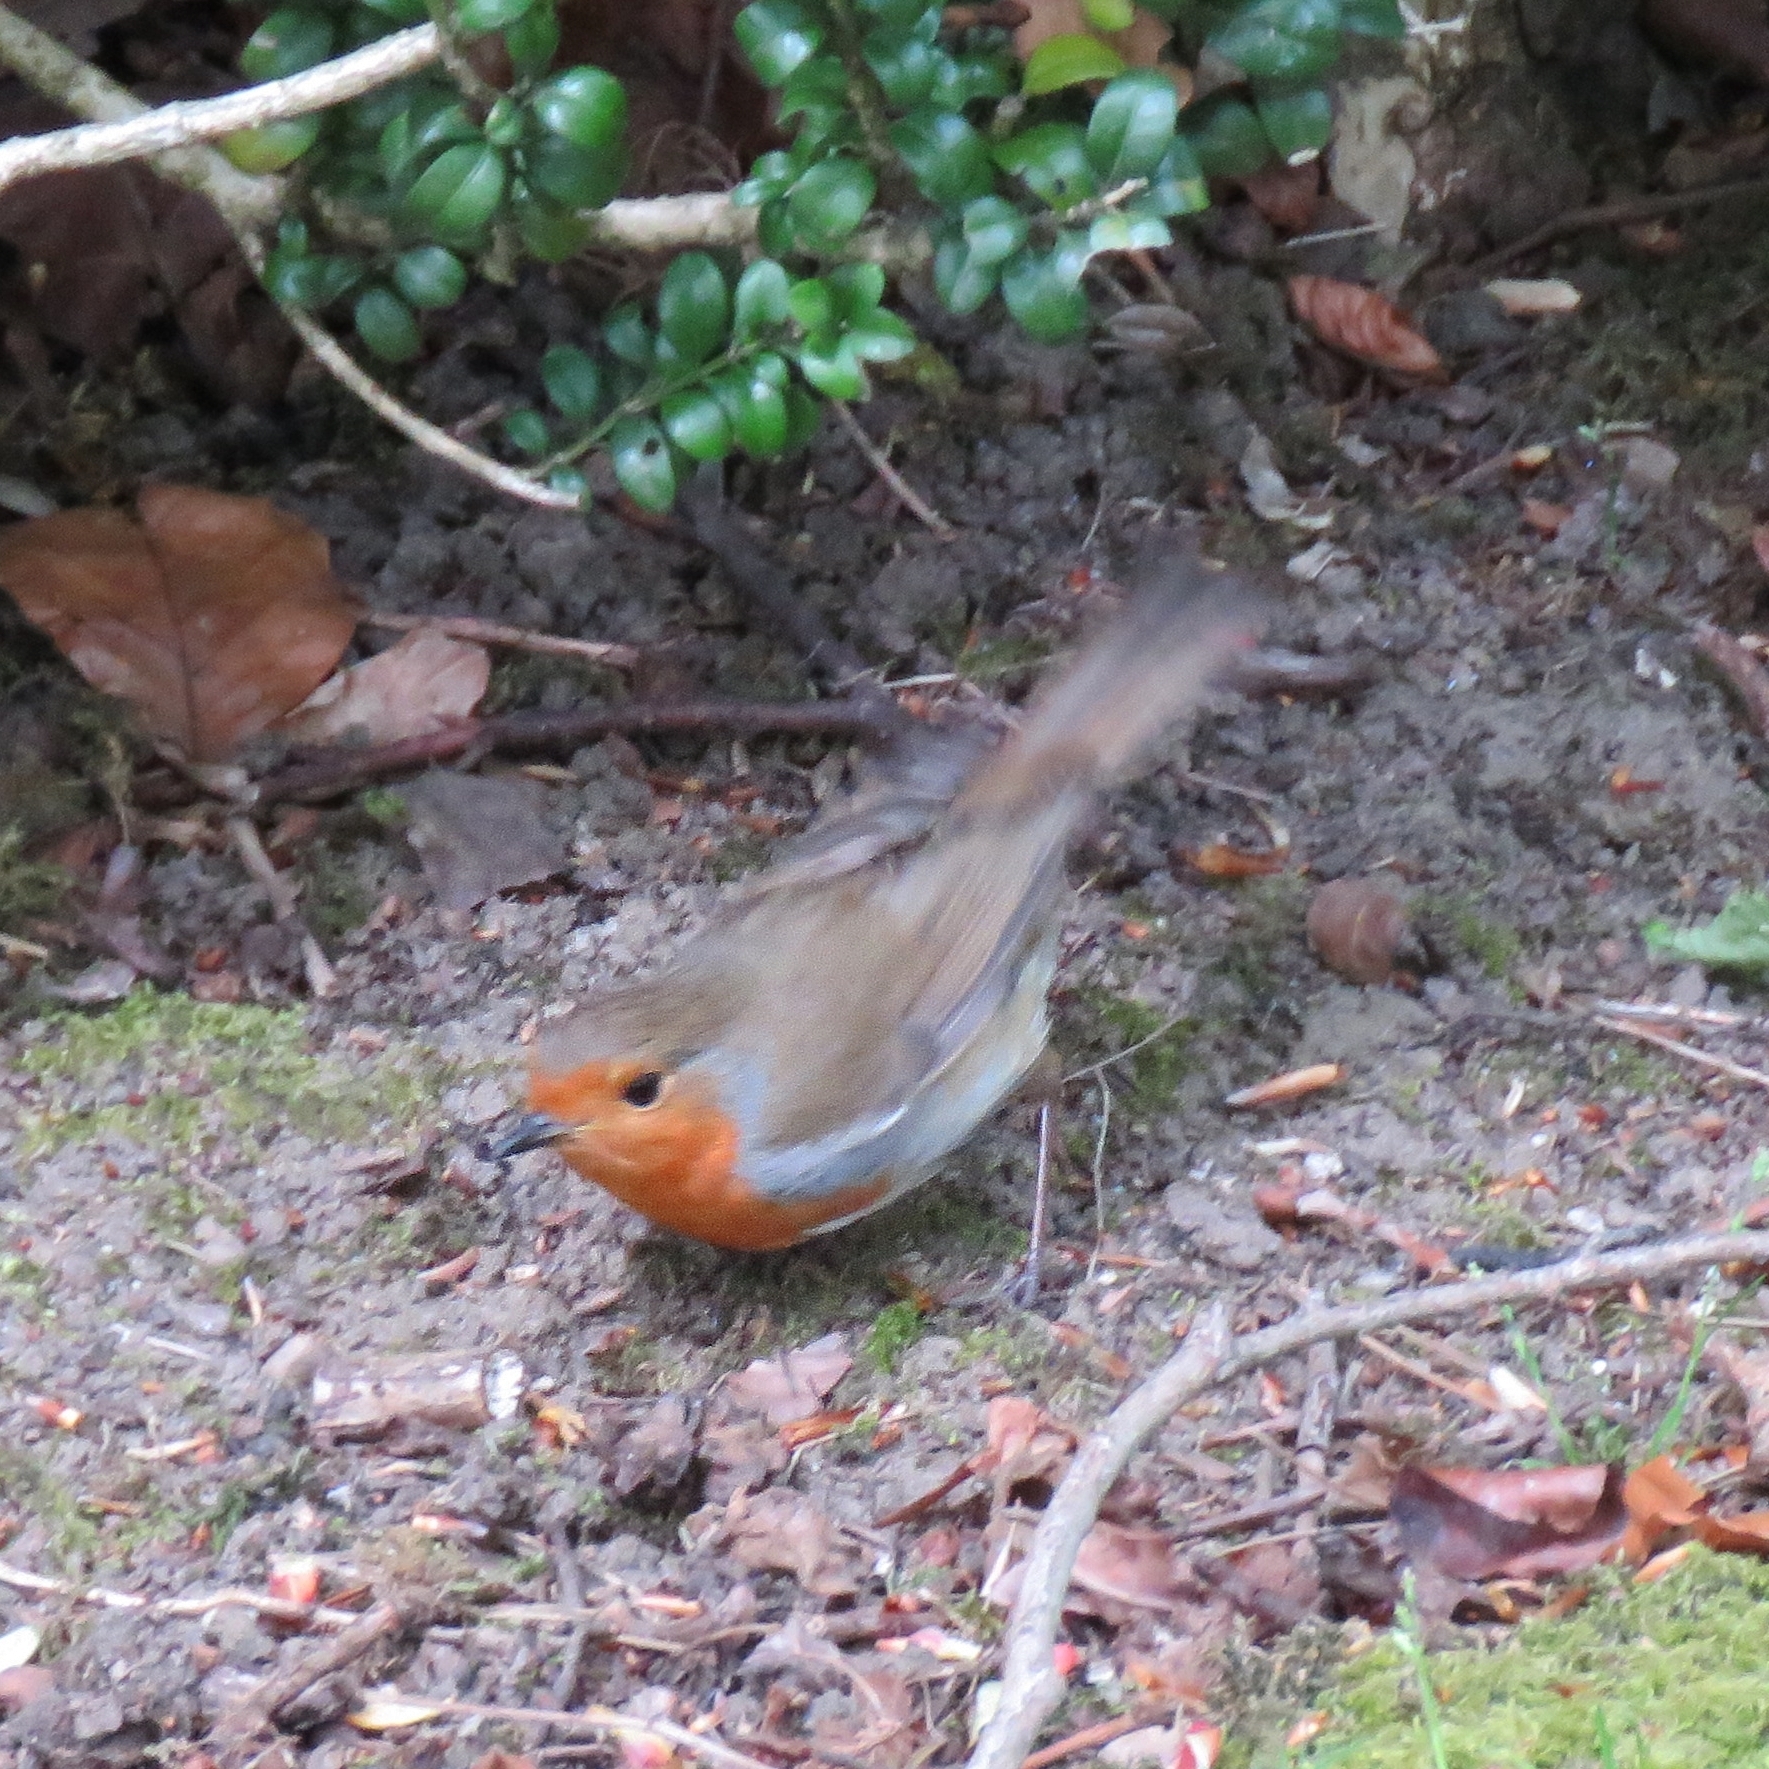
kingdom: Animalia
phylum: Chordata
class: Aves
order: Passeriformes
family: Muscicapidae
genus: Erithacus
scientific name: Erithacus rubecula
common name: European robin
